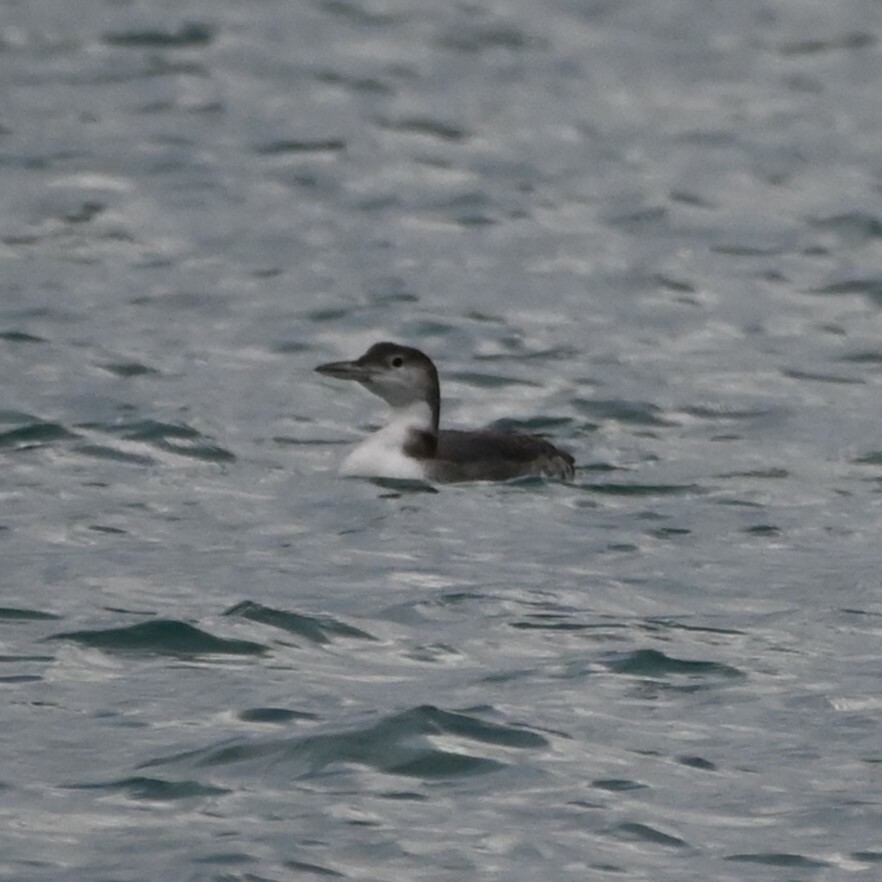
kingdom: Animalia
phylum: Chordata
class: Aves
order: Gaviiformes
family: Gaviidae
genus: Gavia
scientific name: Gavia immer
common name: Common loon
